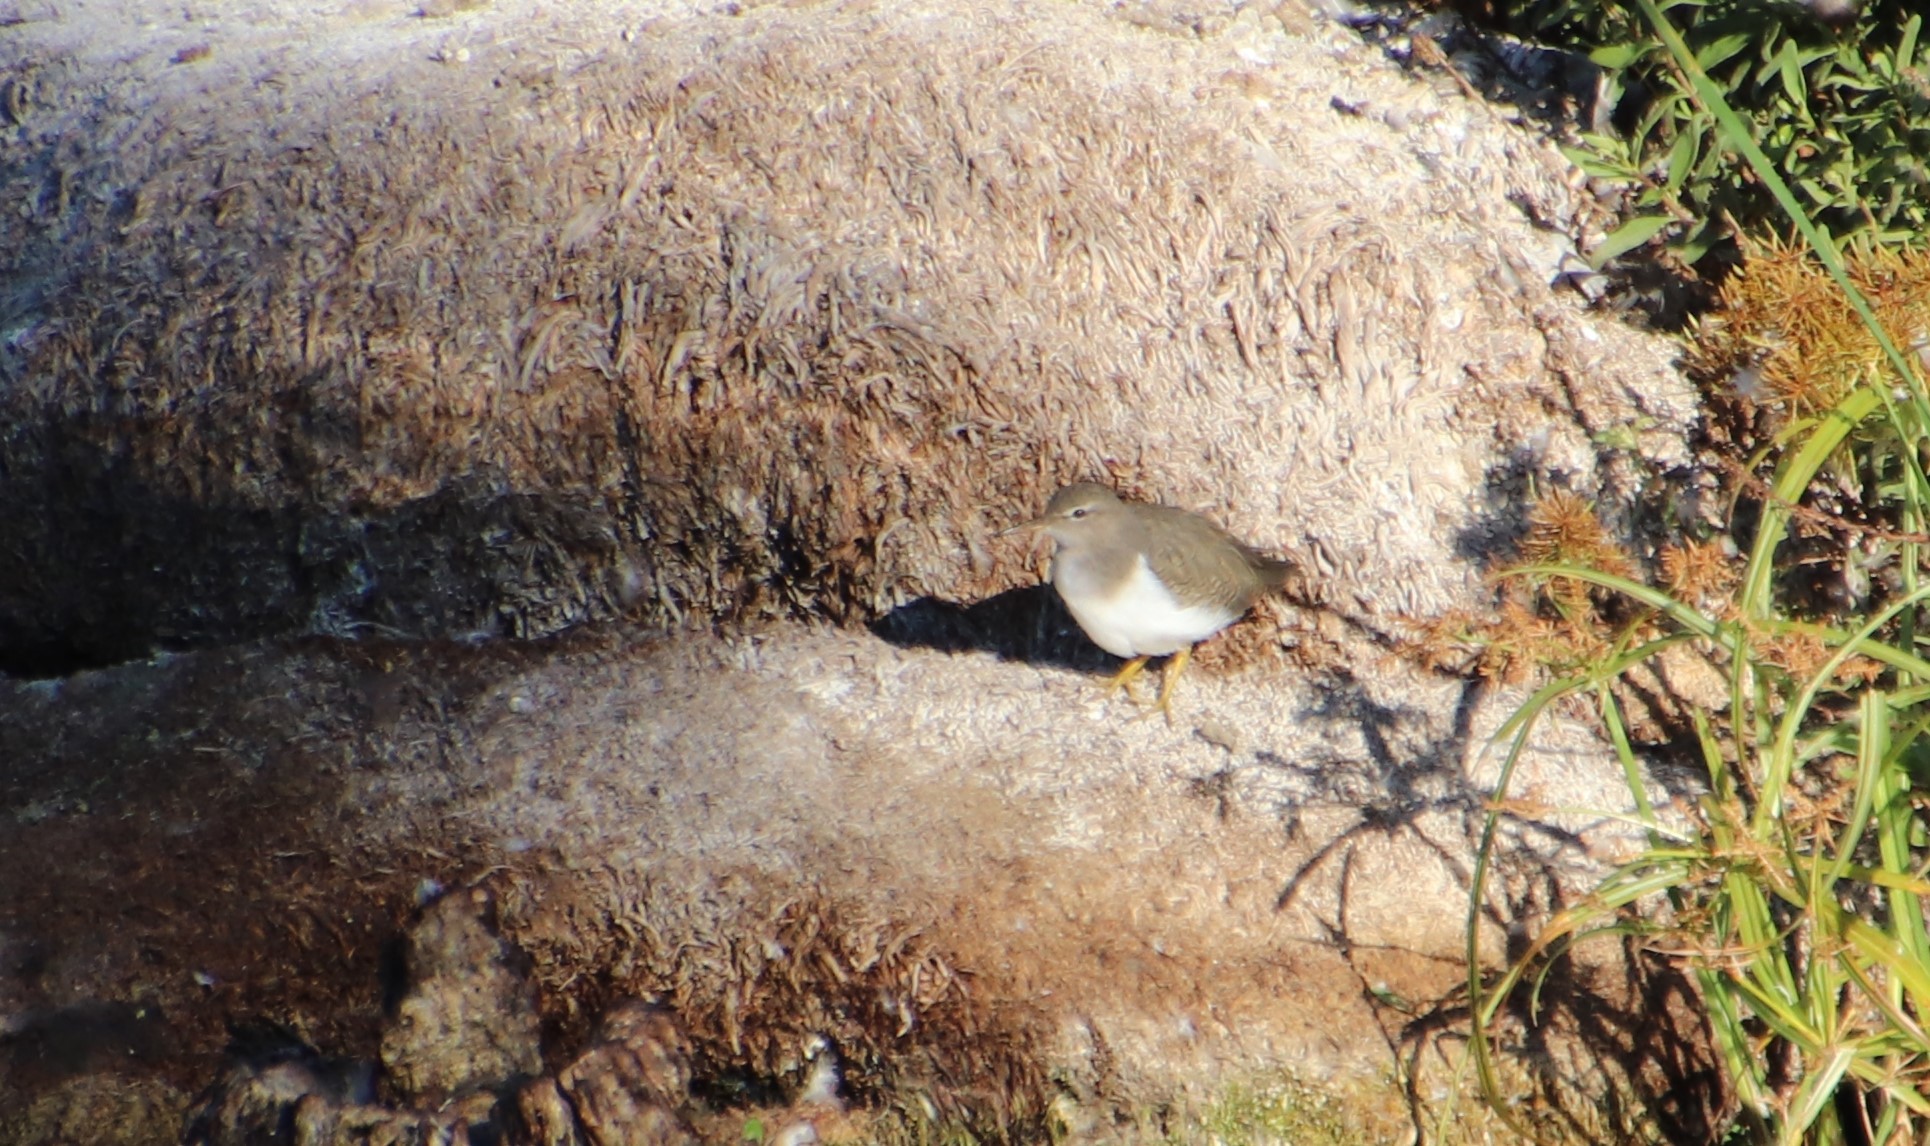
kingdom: Animalia
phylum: Chordata
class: Aves
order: Charadriiformes
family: Scolopacidae
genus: Actitis
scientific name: Actitis macularius
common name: Spotted sandpiper
